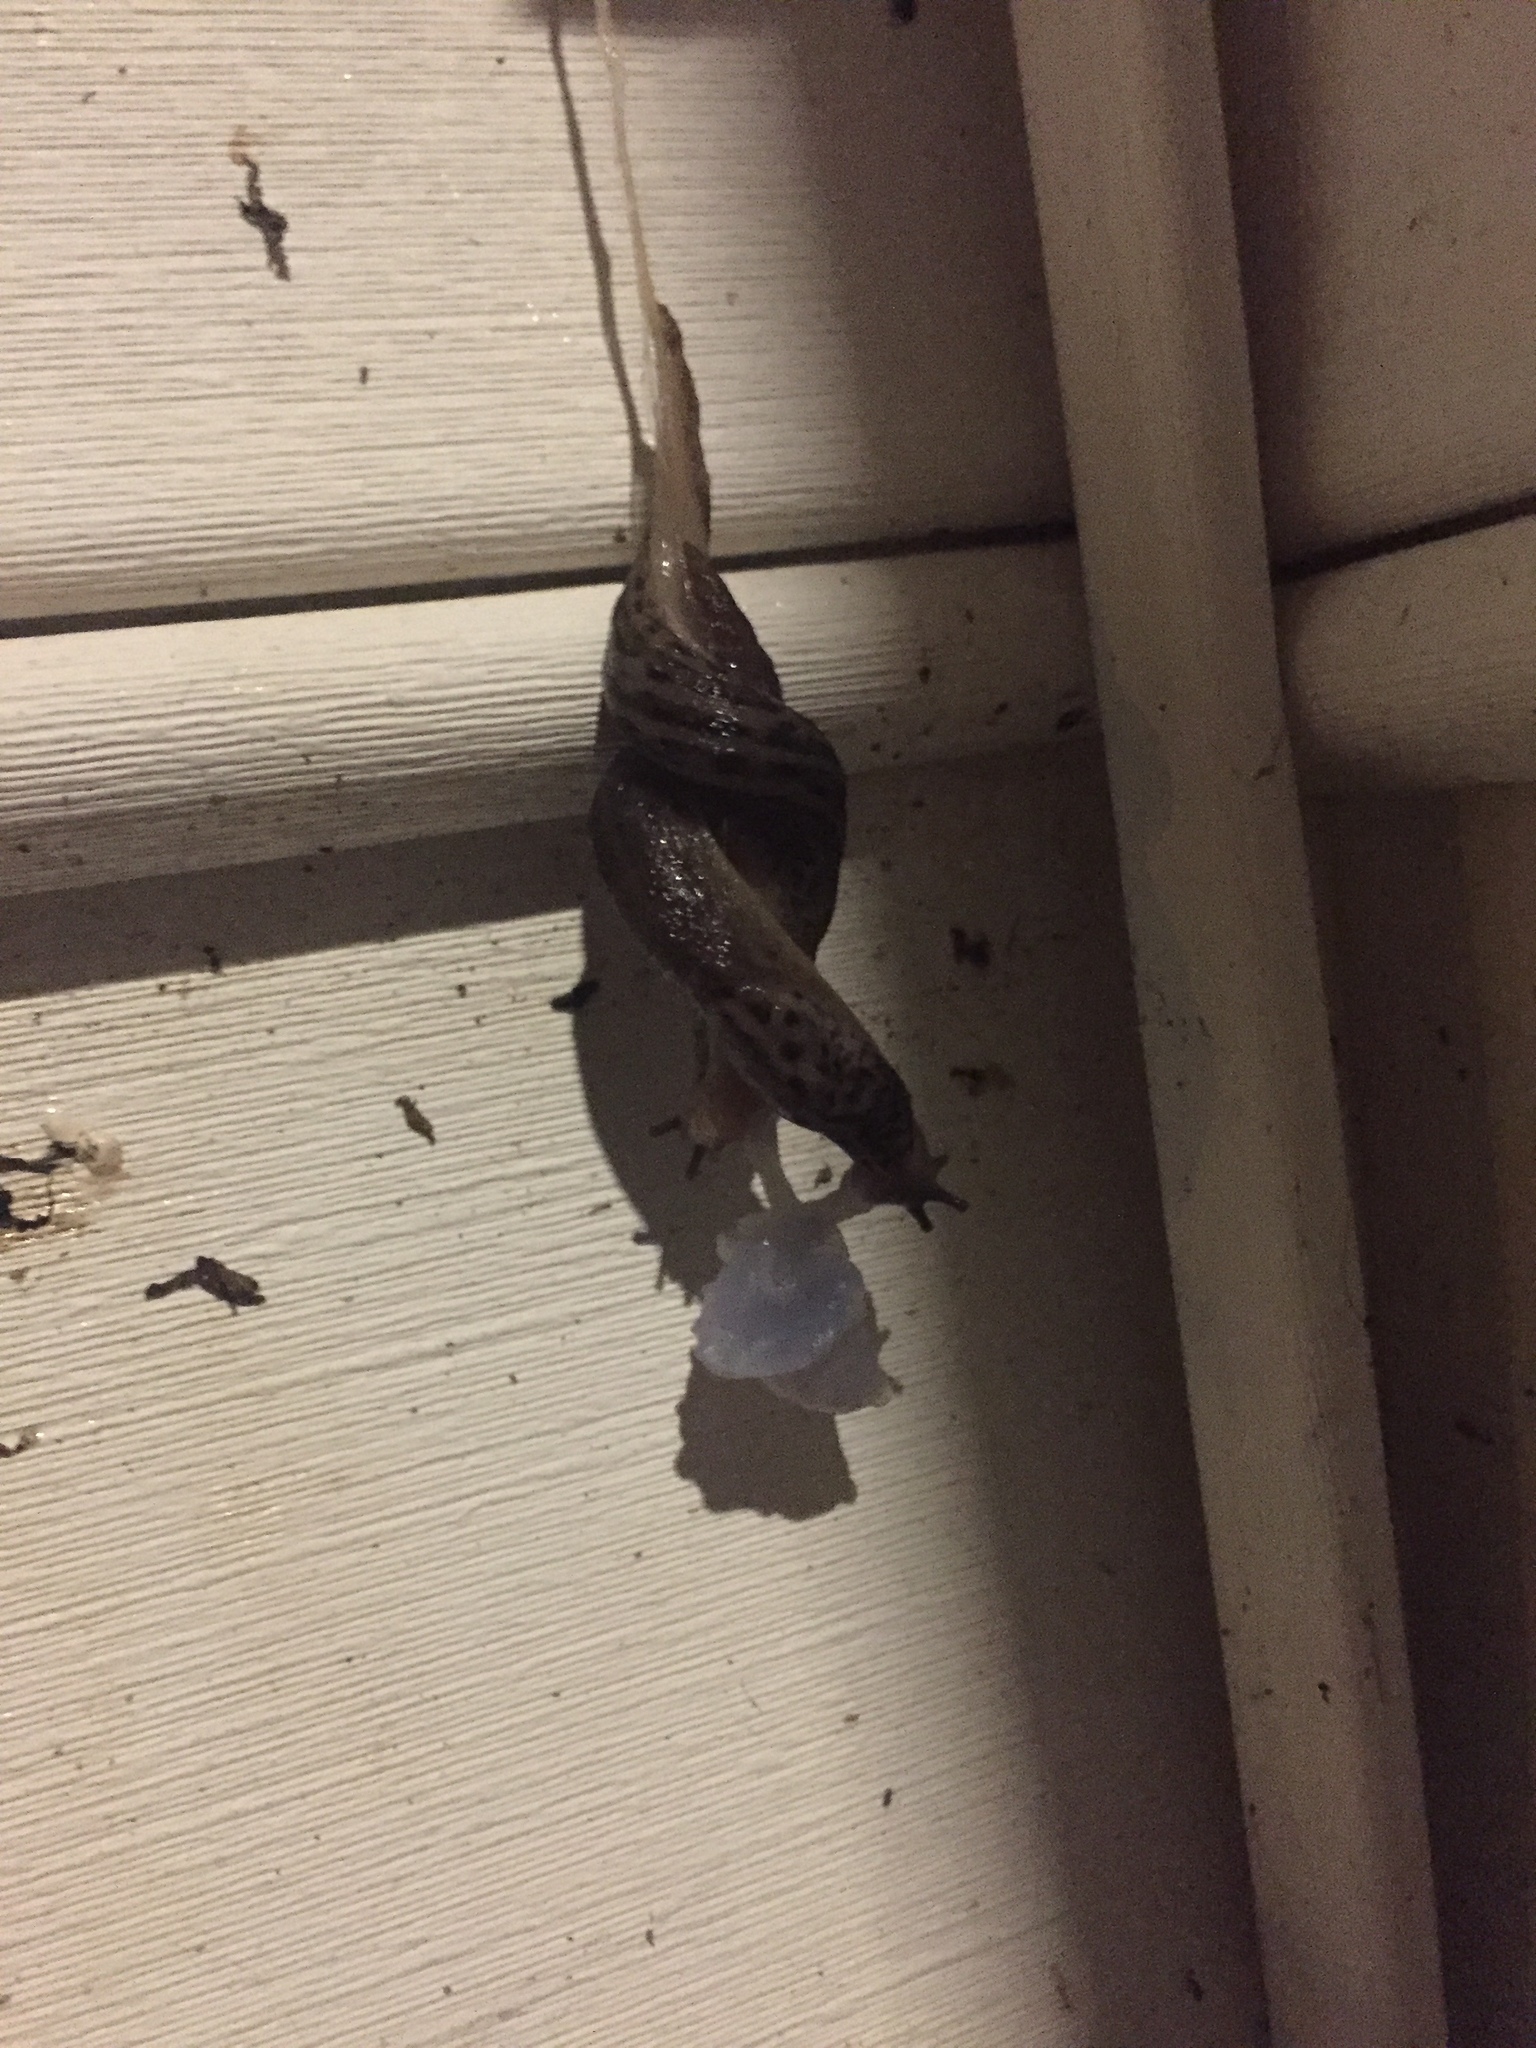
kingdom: Animalia
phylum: Mollusca
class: Gastropoda
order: Stylommatophora
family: Limacidae
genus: Limax
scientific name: Limax maximus
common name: Great grey slug
